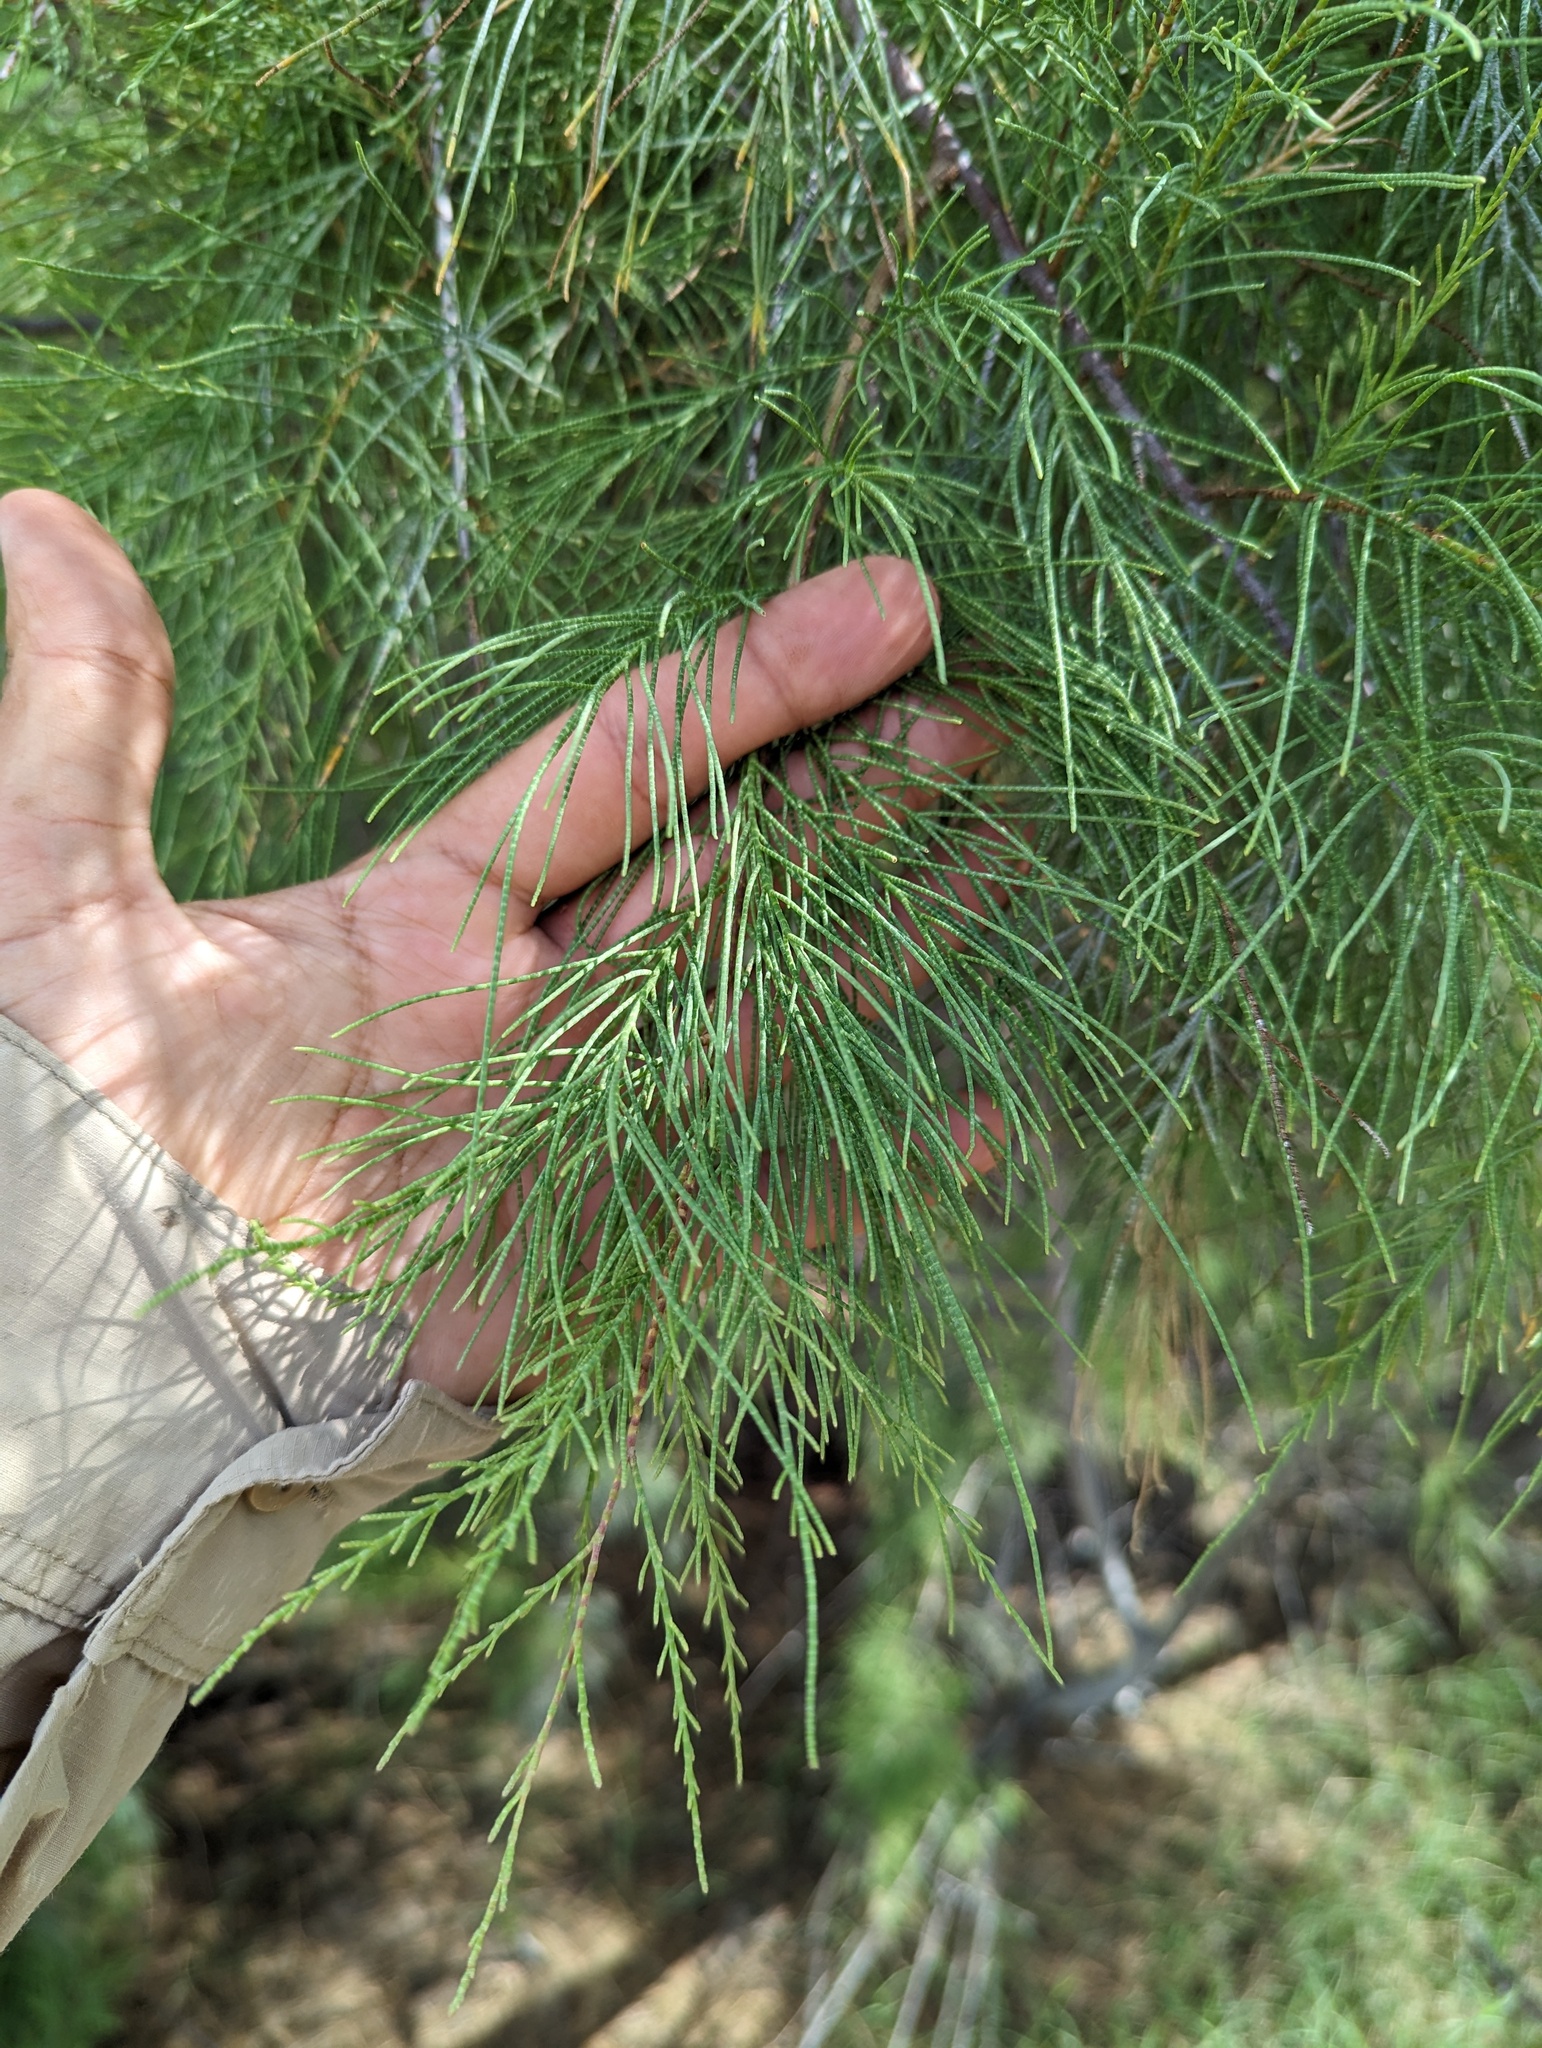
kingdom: Plantae
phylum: Tracheophyta
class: Magnoliopsida
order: Caryophyllales
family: Tamaricaceae
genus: Tamarix
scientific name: Tamarix aphylla
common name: Athel tamarisk
